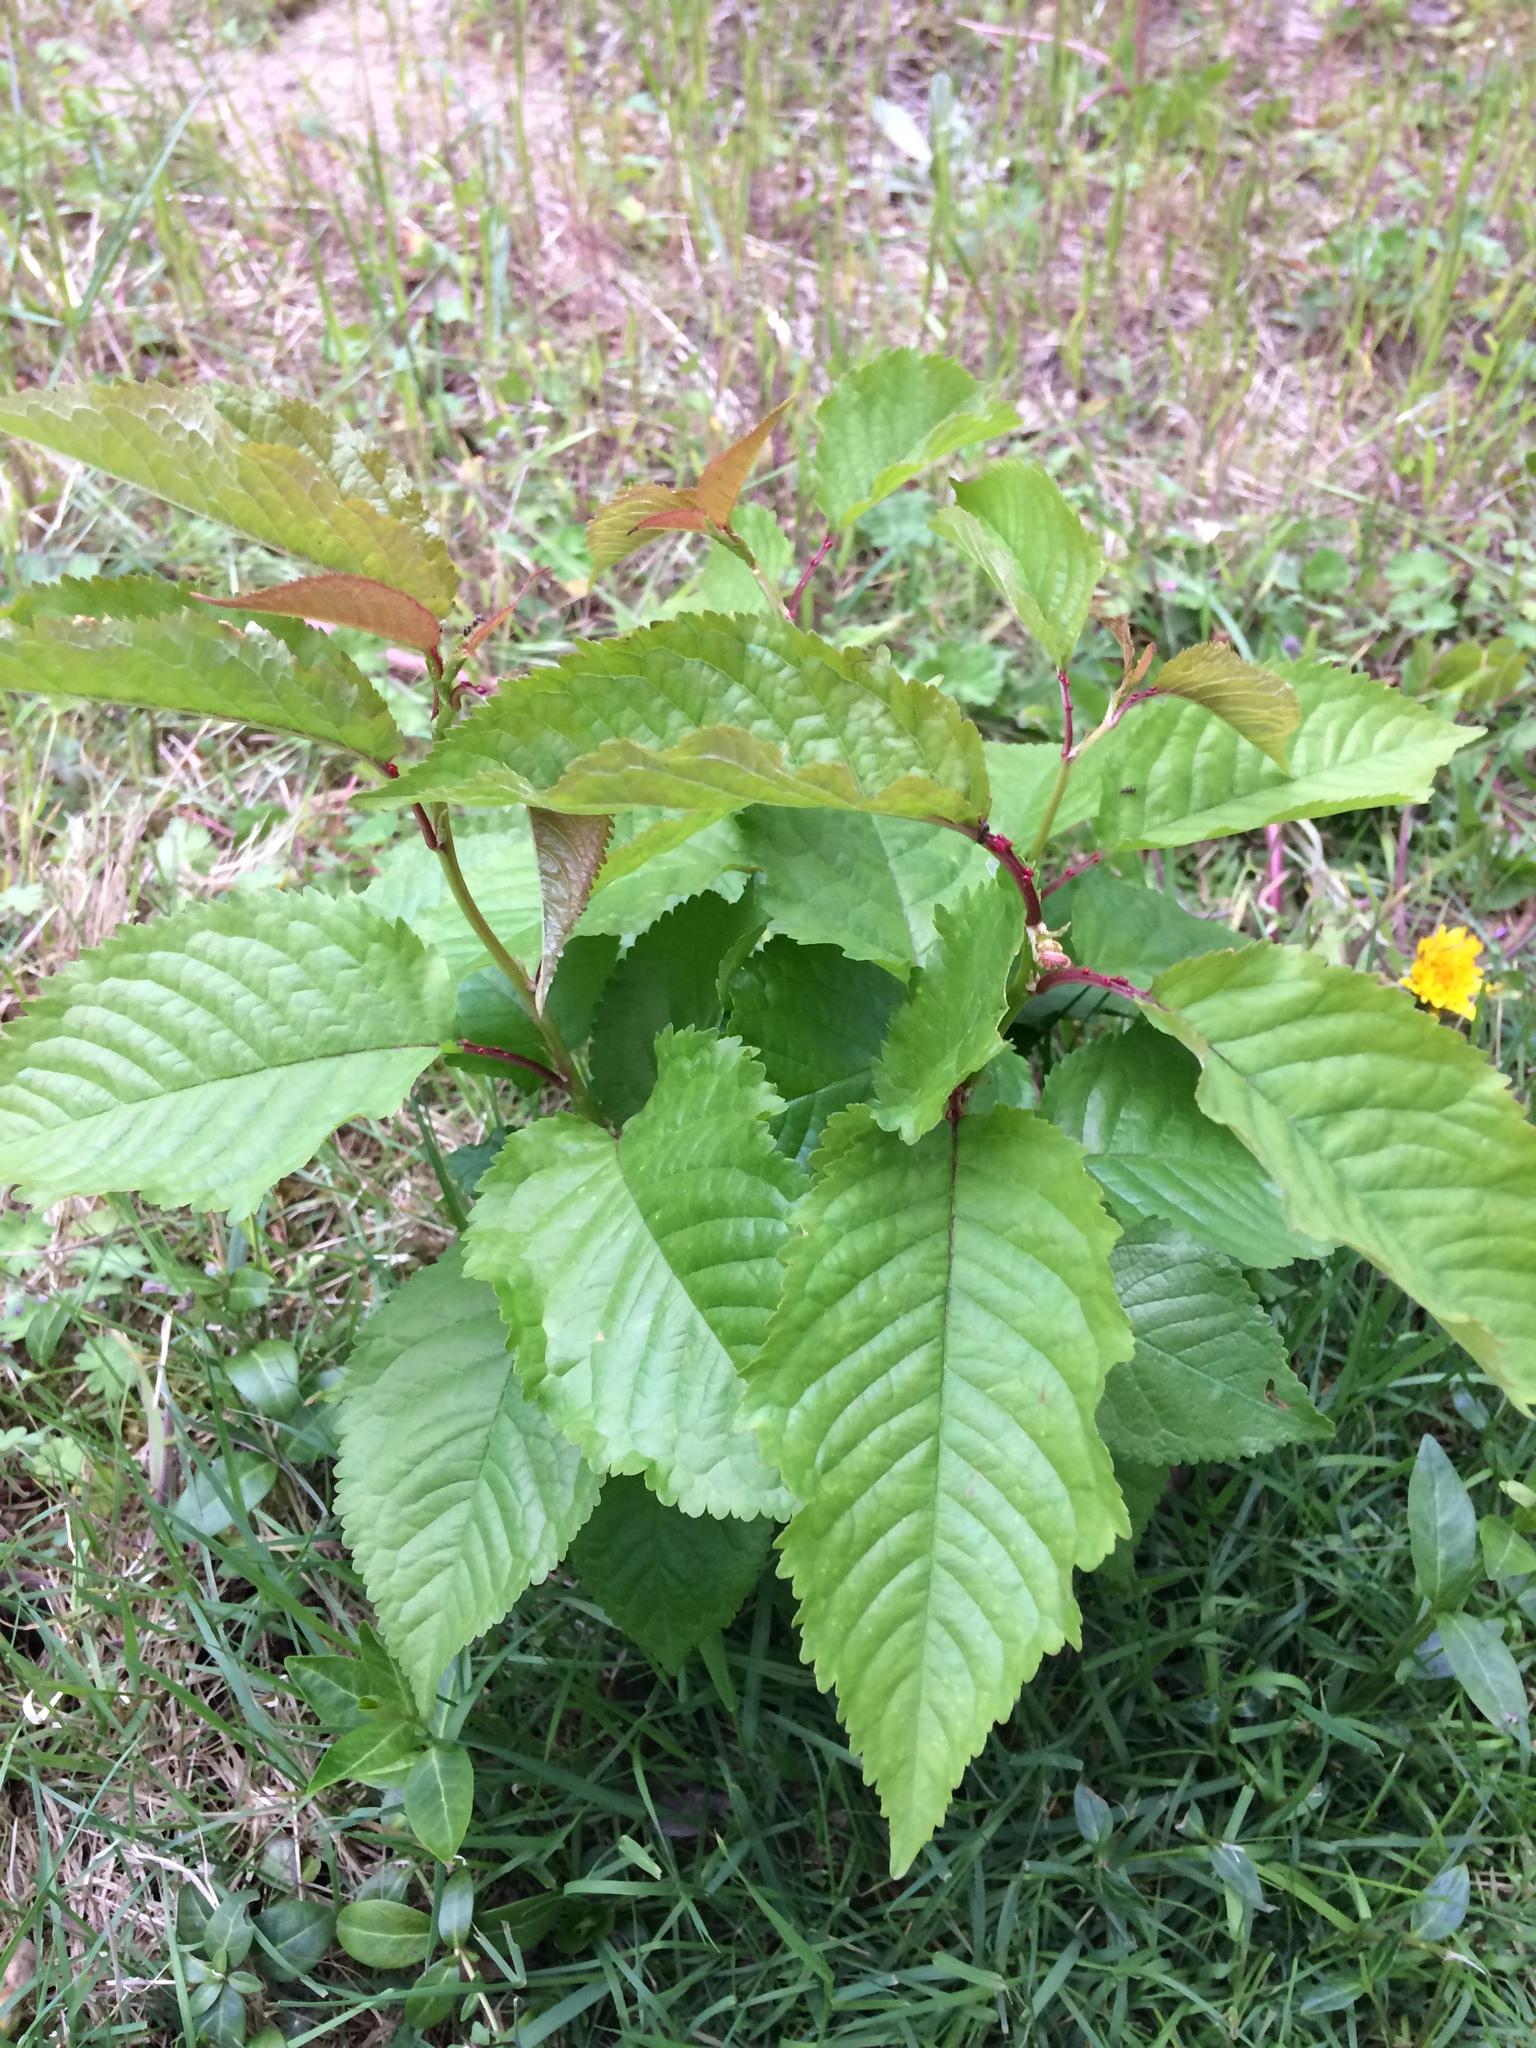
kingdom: Plantae
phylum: Tracheophyta
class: Magnoliopsida
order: Rosales
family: Rosaceae
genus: Prunus
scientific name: Prunus avium
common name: Sweet cherry
